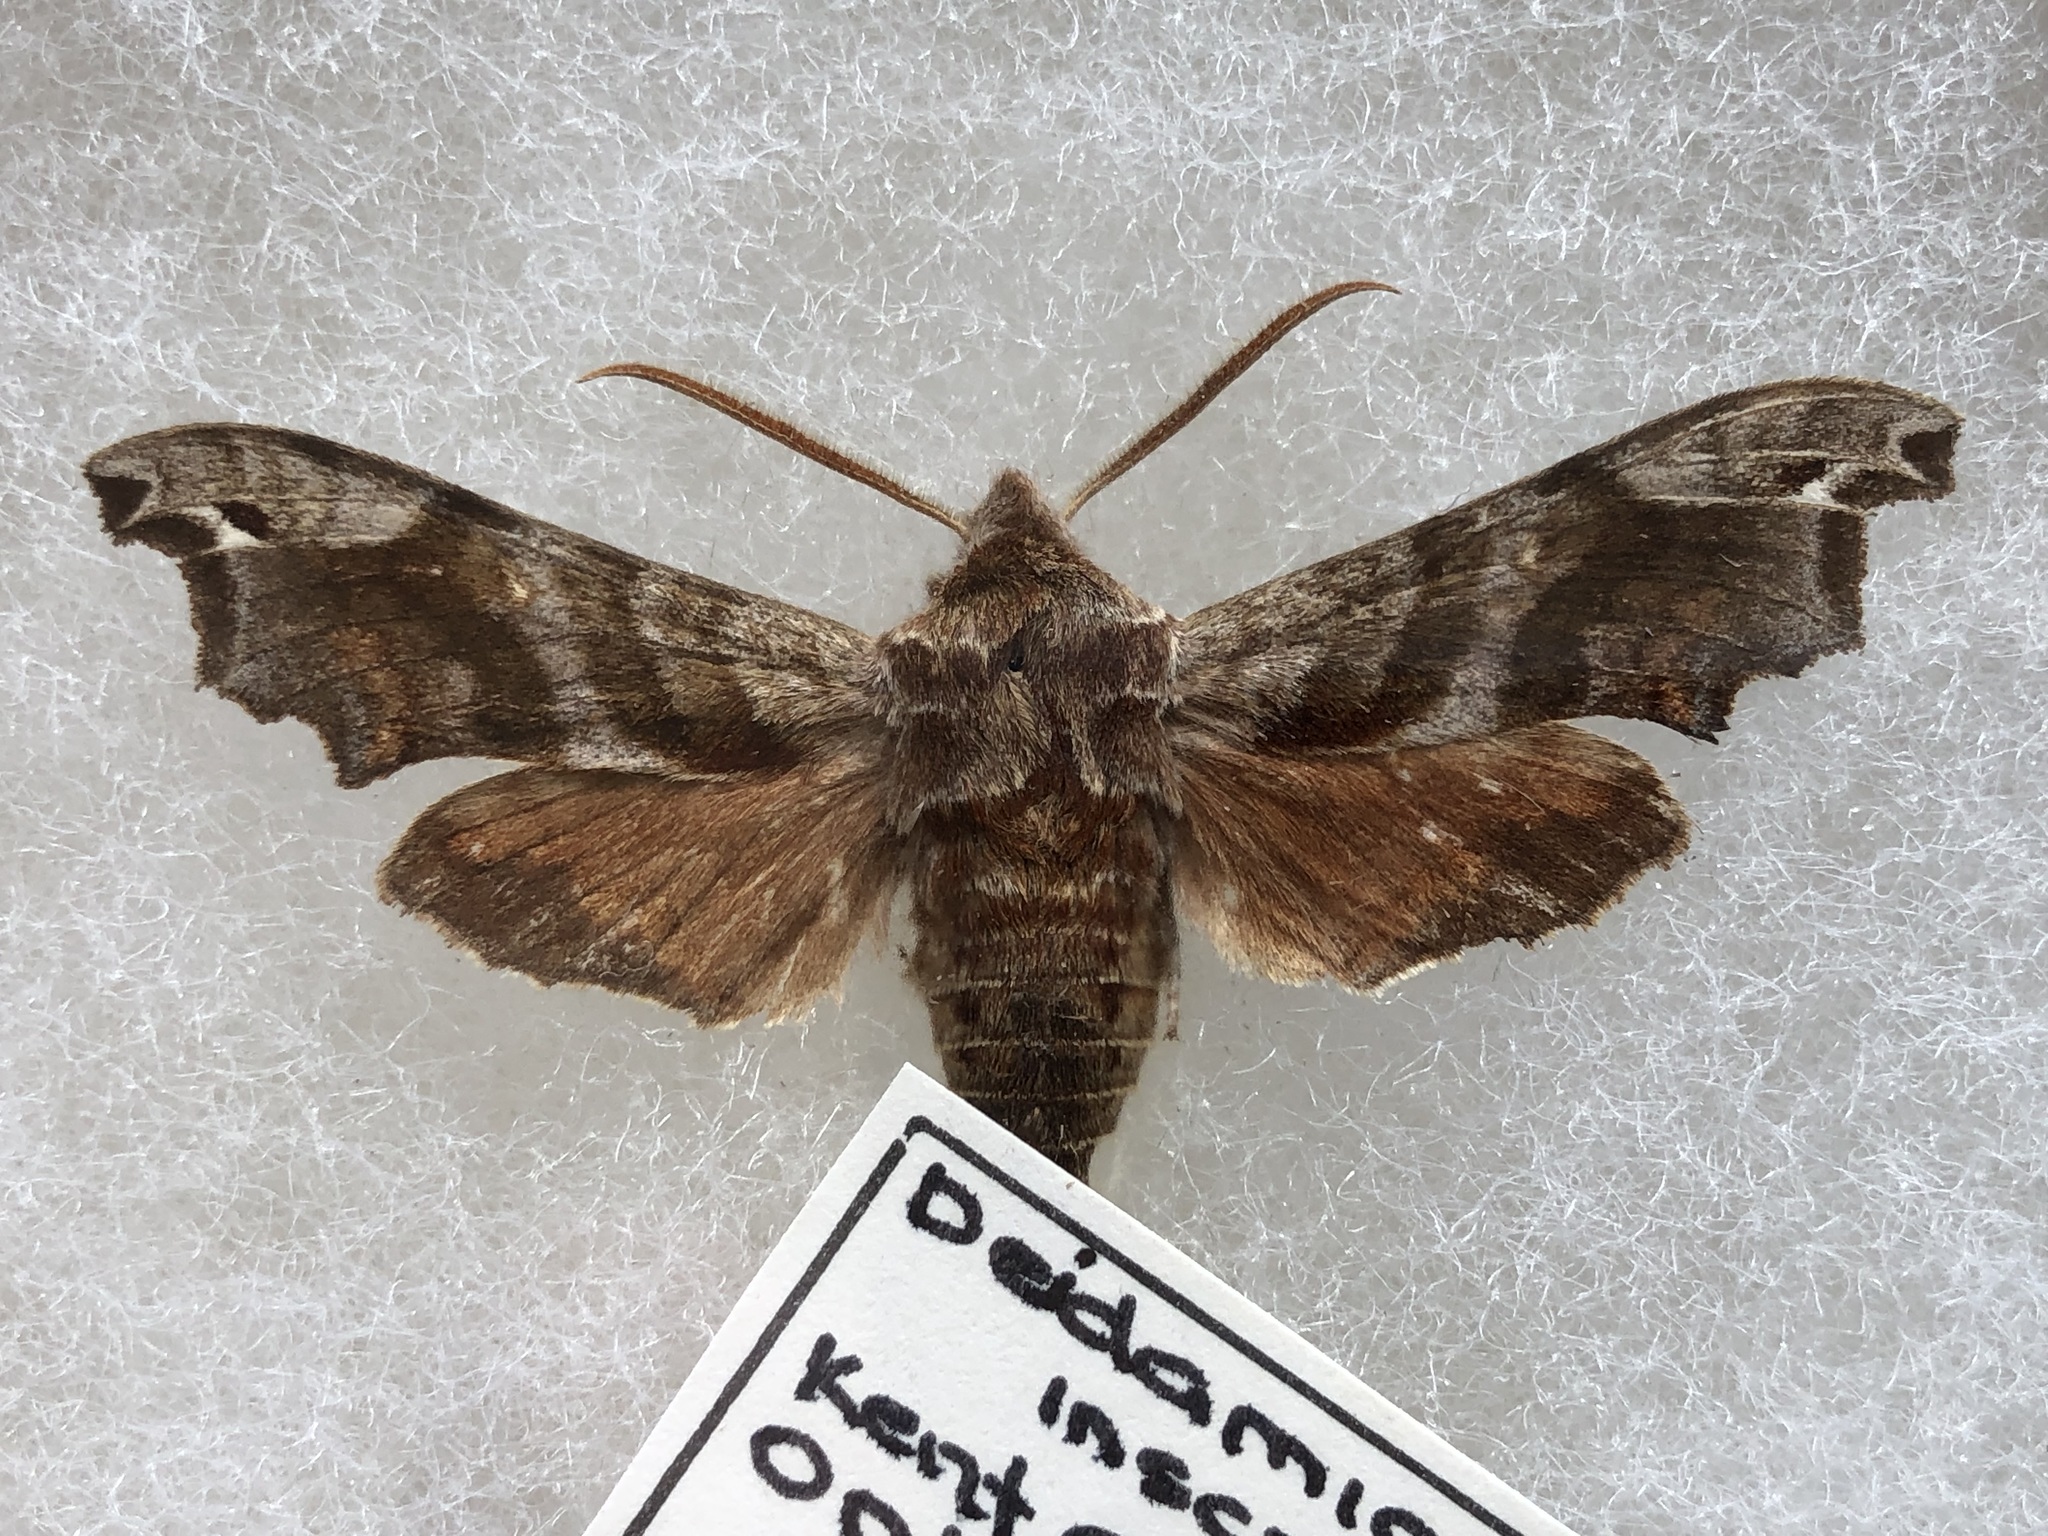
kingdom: Animalia
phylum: Arthropoda
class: Insecta
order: Lepidoptera
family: Sphingidae
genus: Deidamia
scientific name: Deidamia inscriptum
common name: Lettered sphinx
